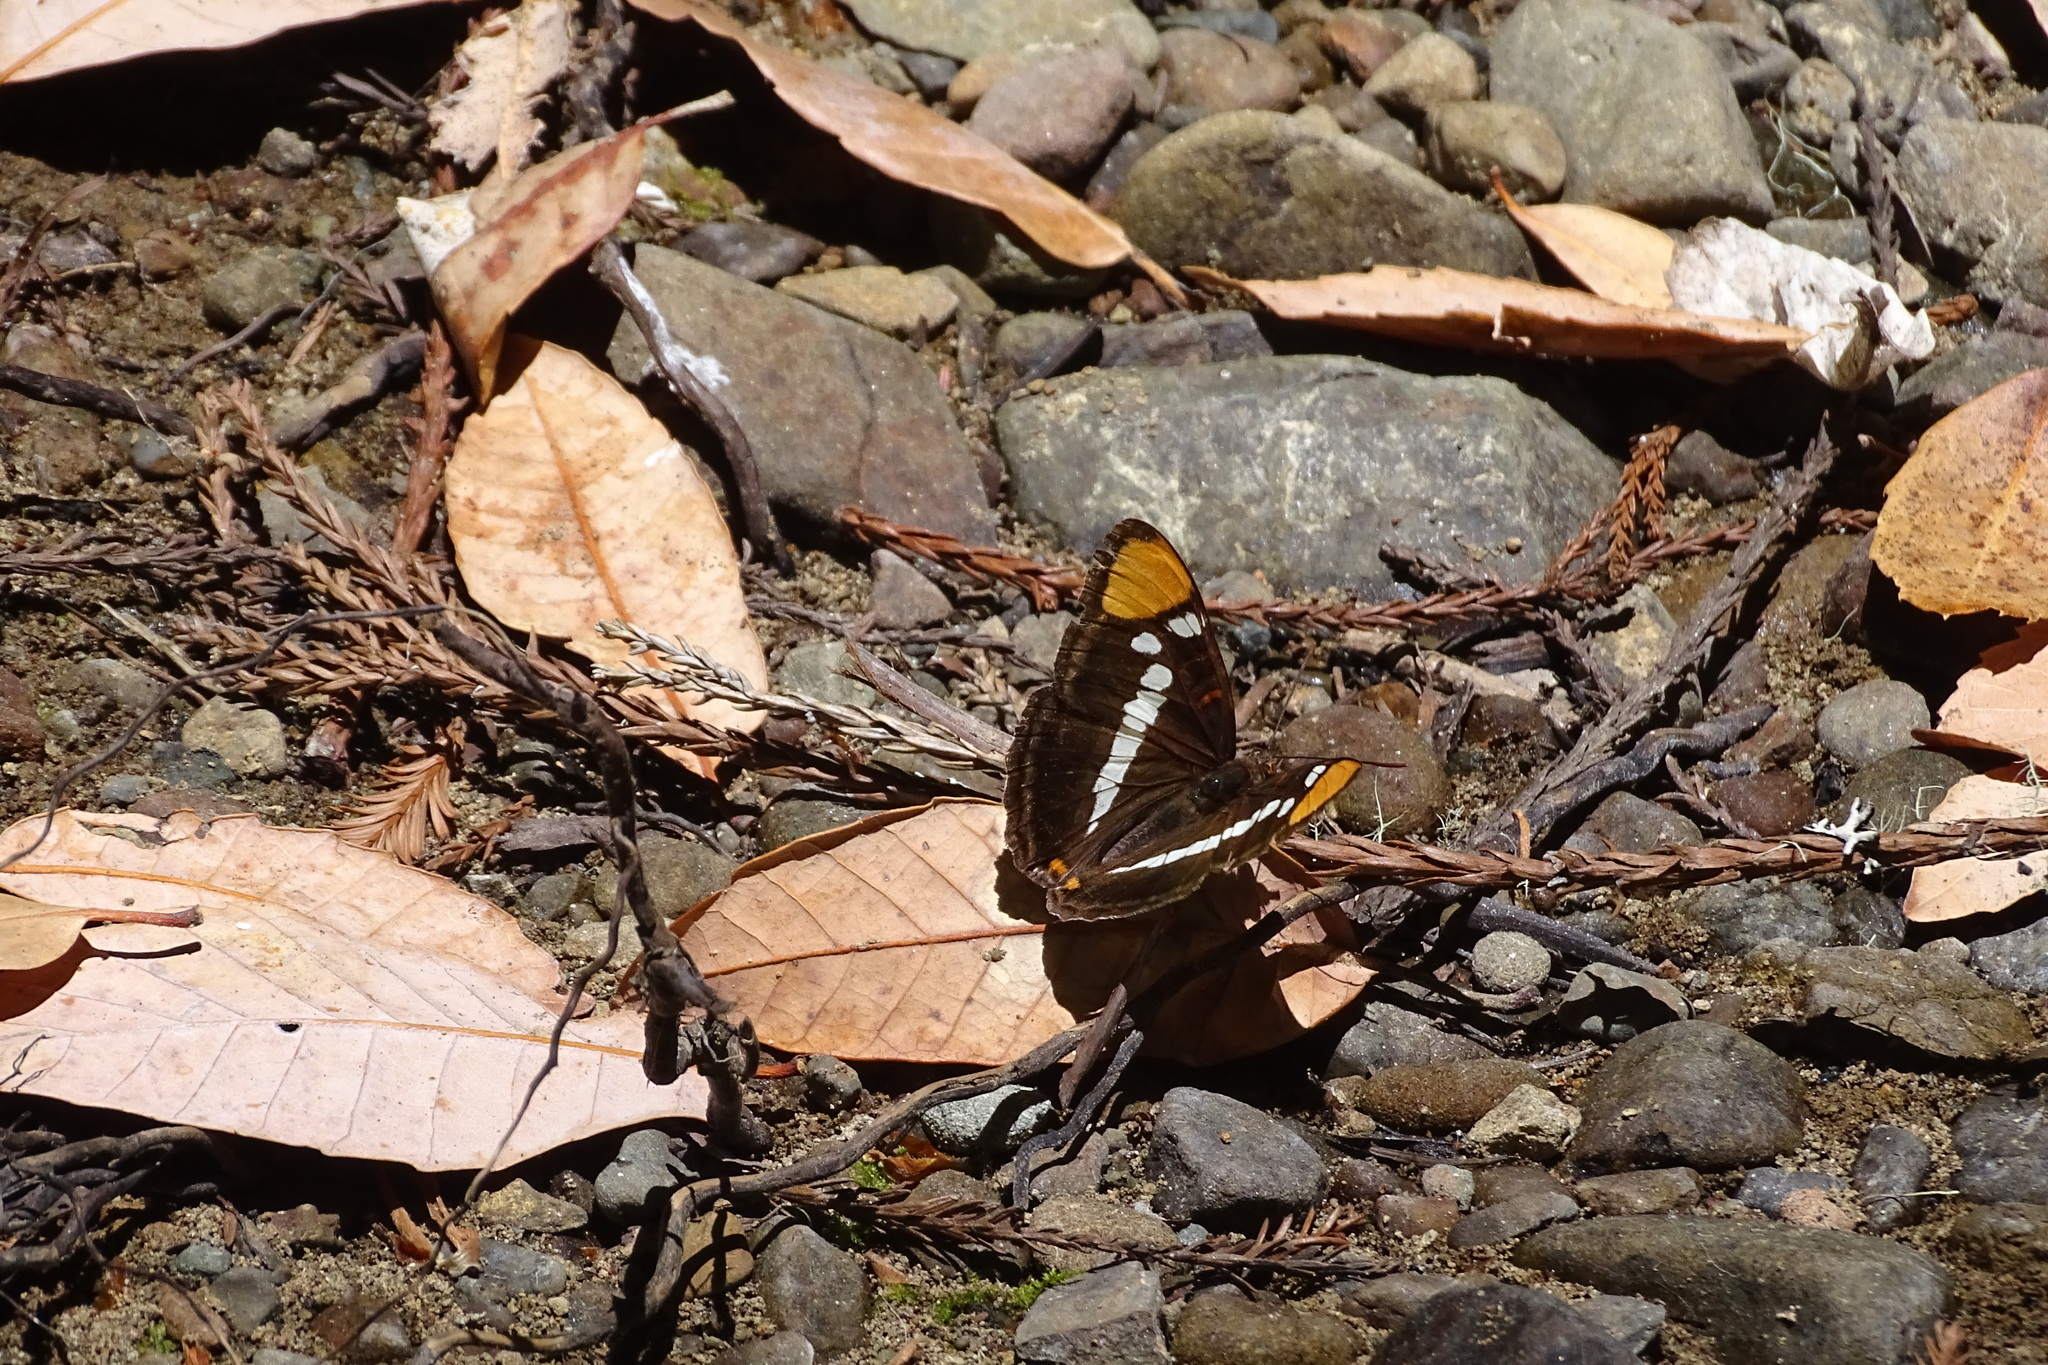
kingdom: Animalia
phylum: Arthropoda
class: Insecta
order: Lepidoptera
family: Nymphalidae
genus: Limenitis
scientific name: Limenitis bredowii
